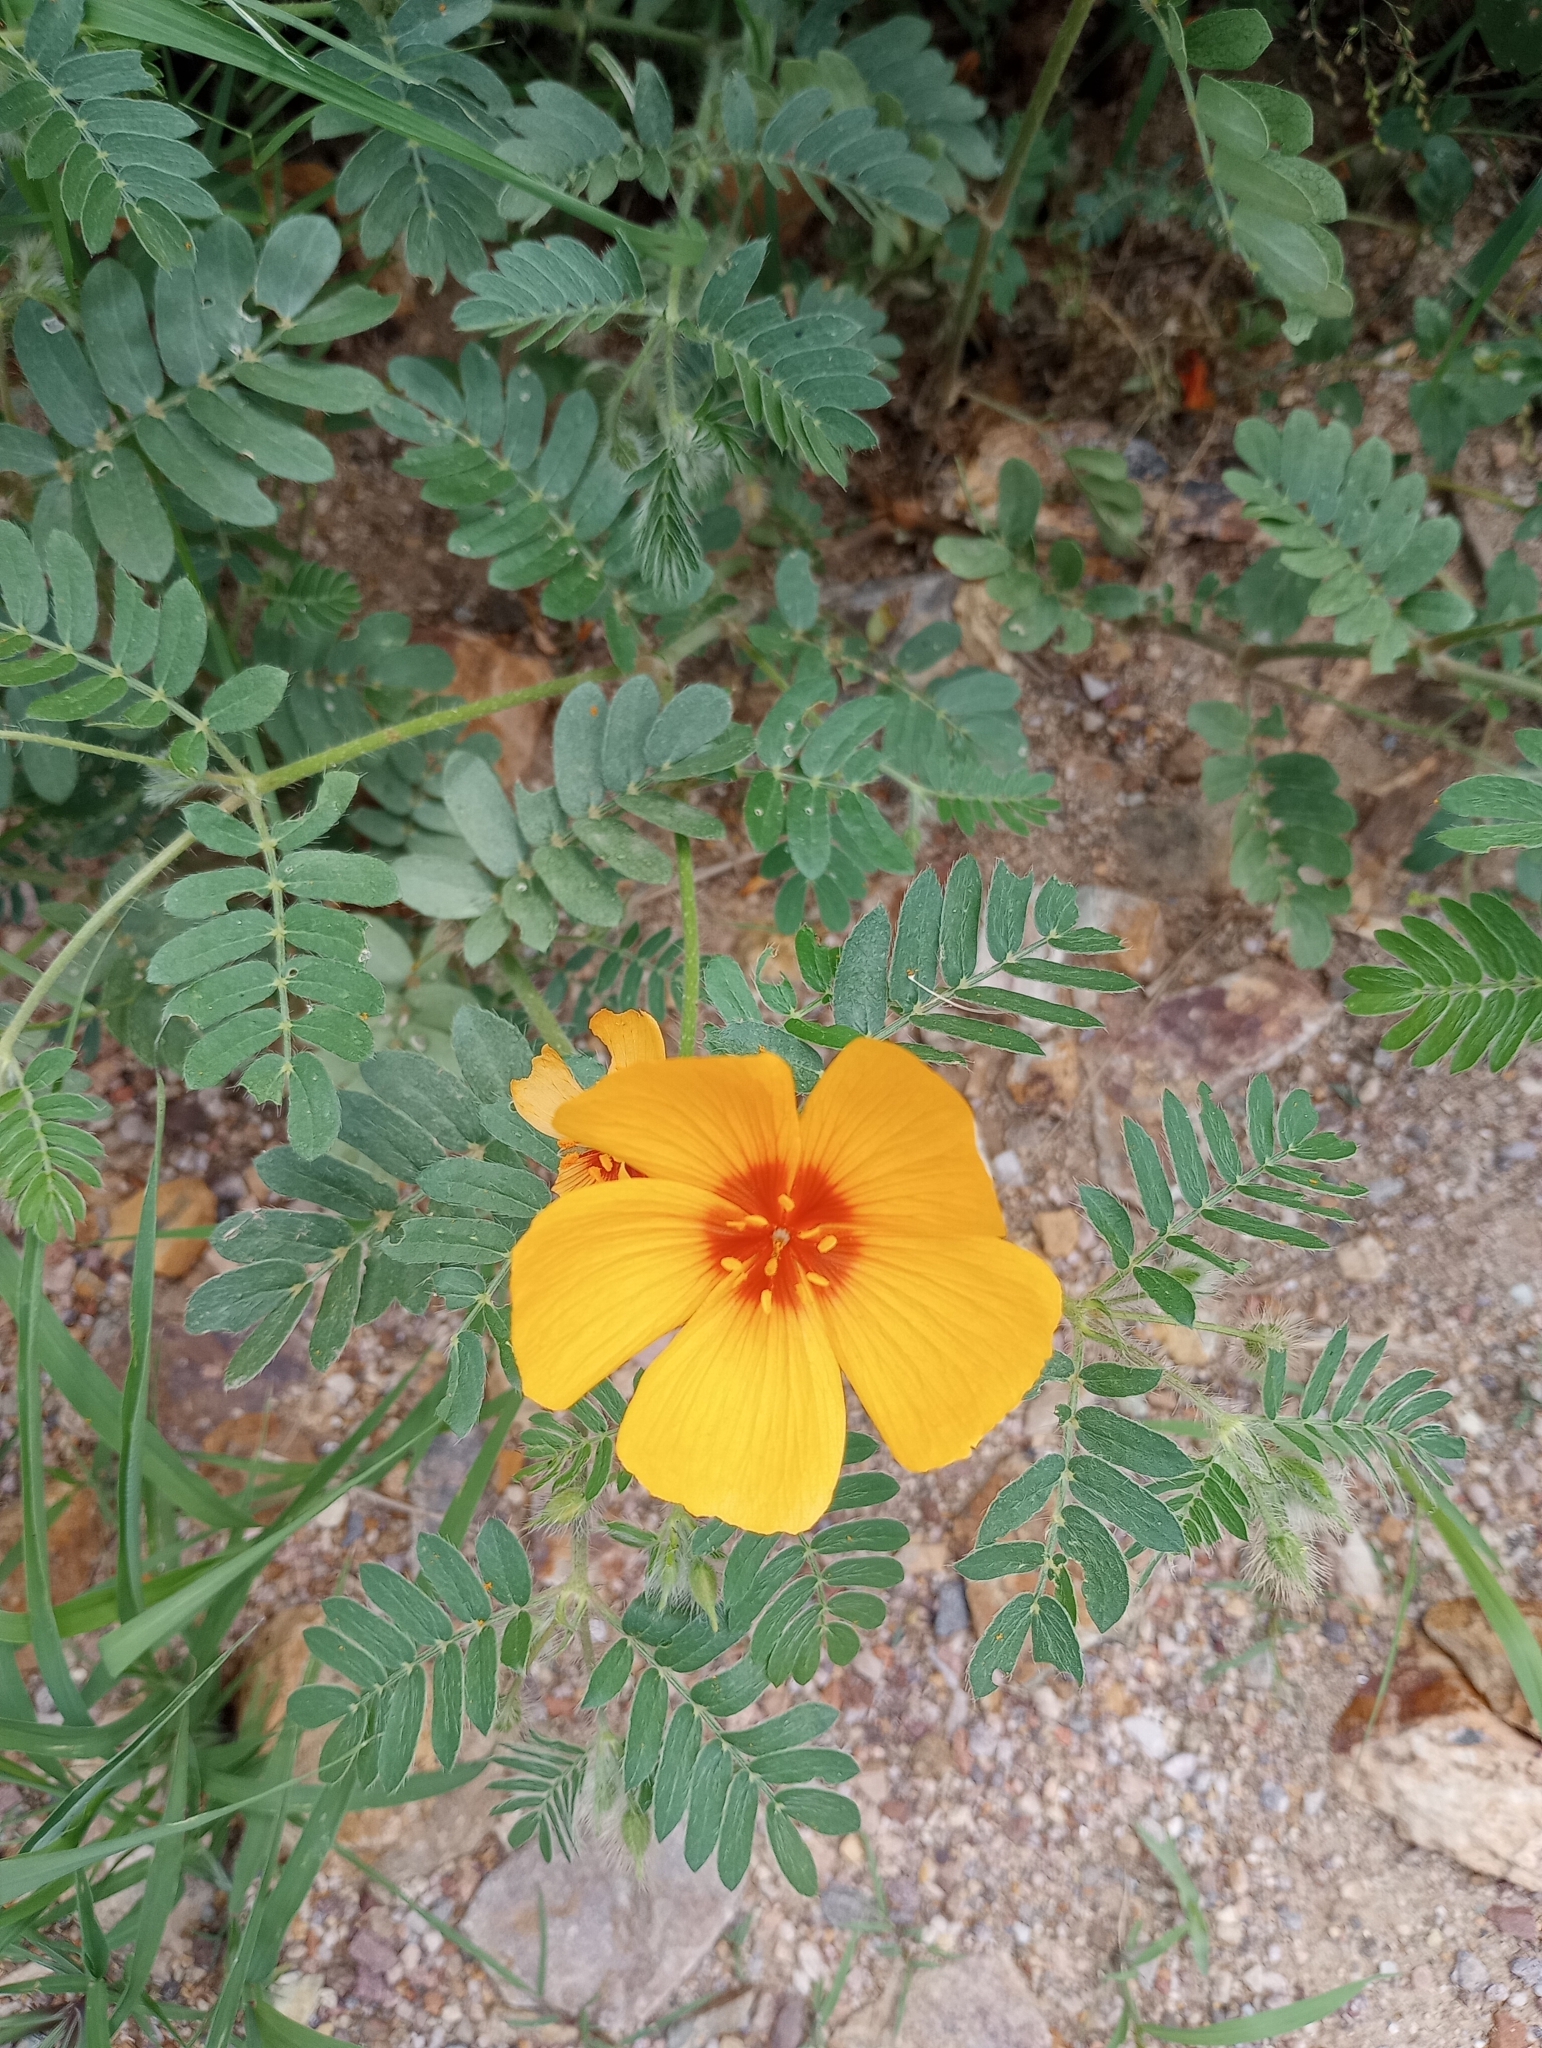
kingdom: Plantae
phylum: Tracheophyta
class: Magnoliopsida
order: Zygophyllales
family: Zygophyllaceae
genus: Kallstroemia
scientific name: Kallstroemia grandiflora
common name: Arizona-poppy
